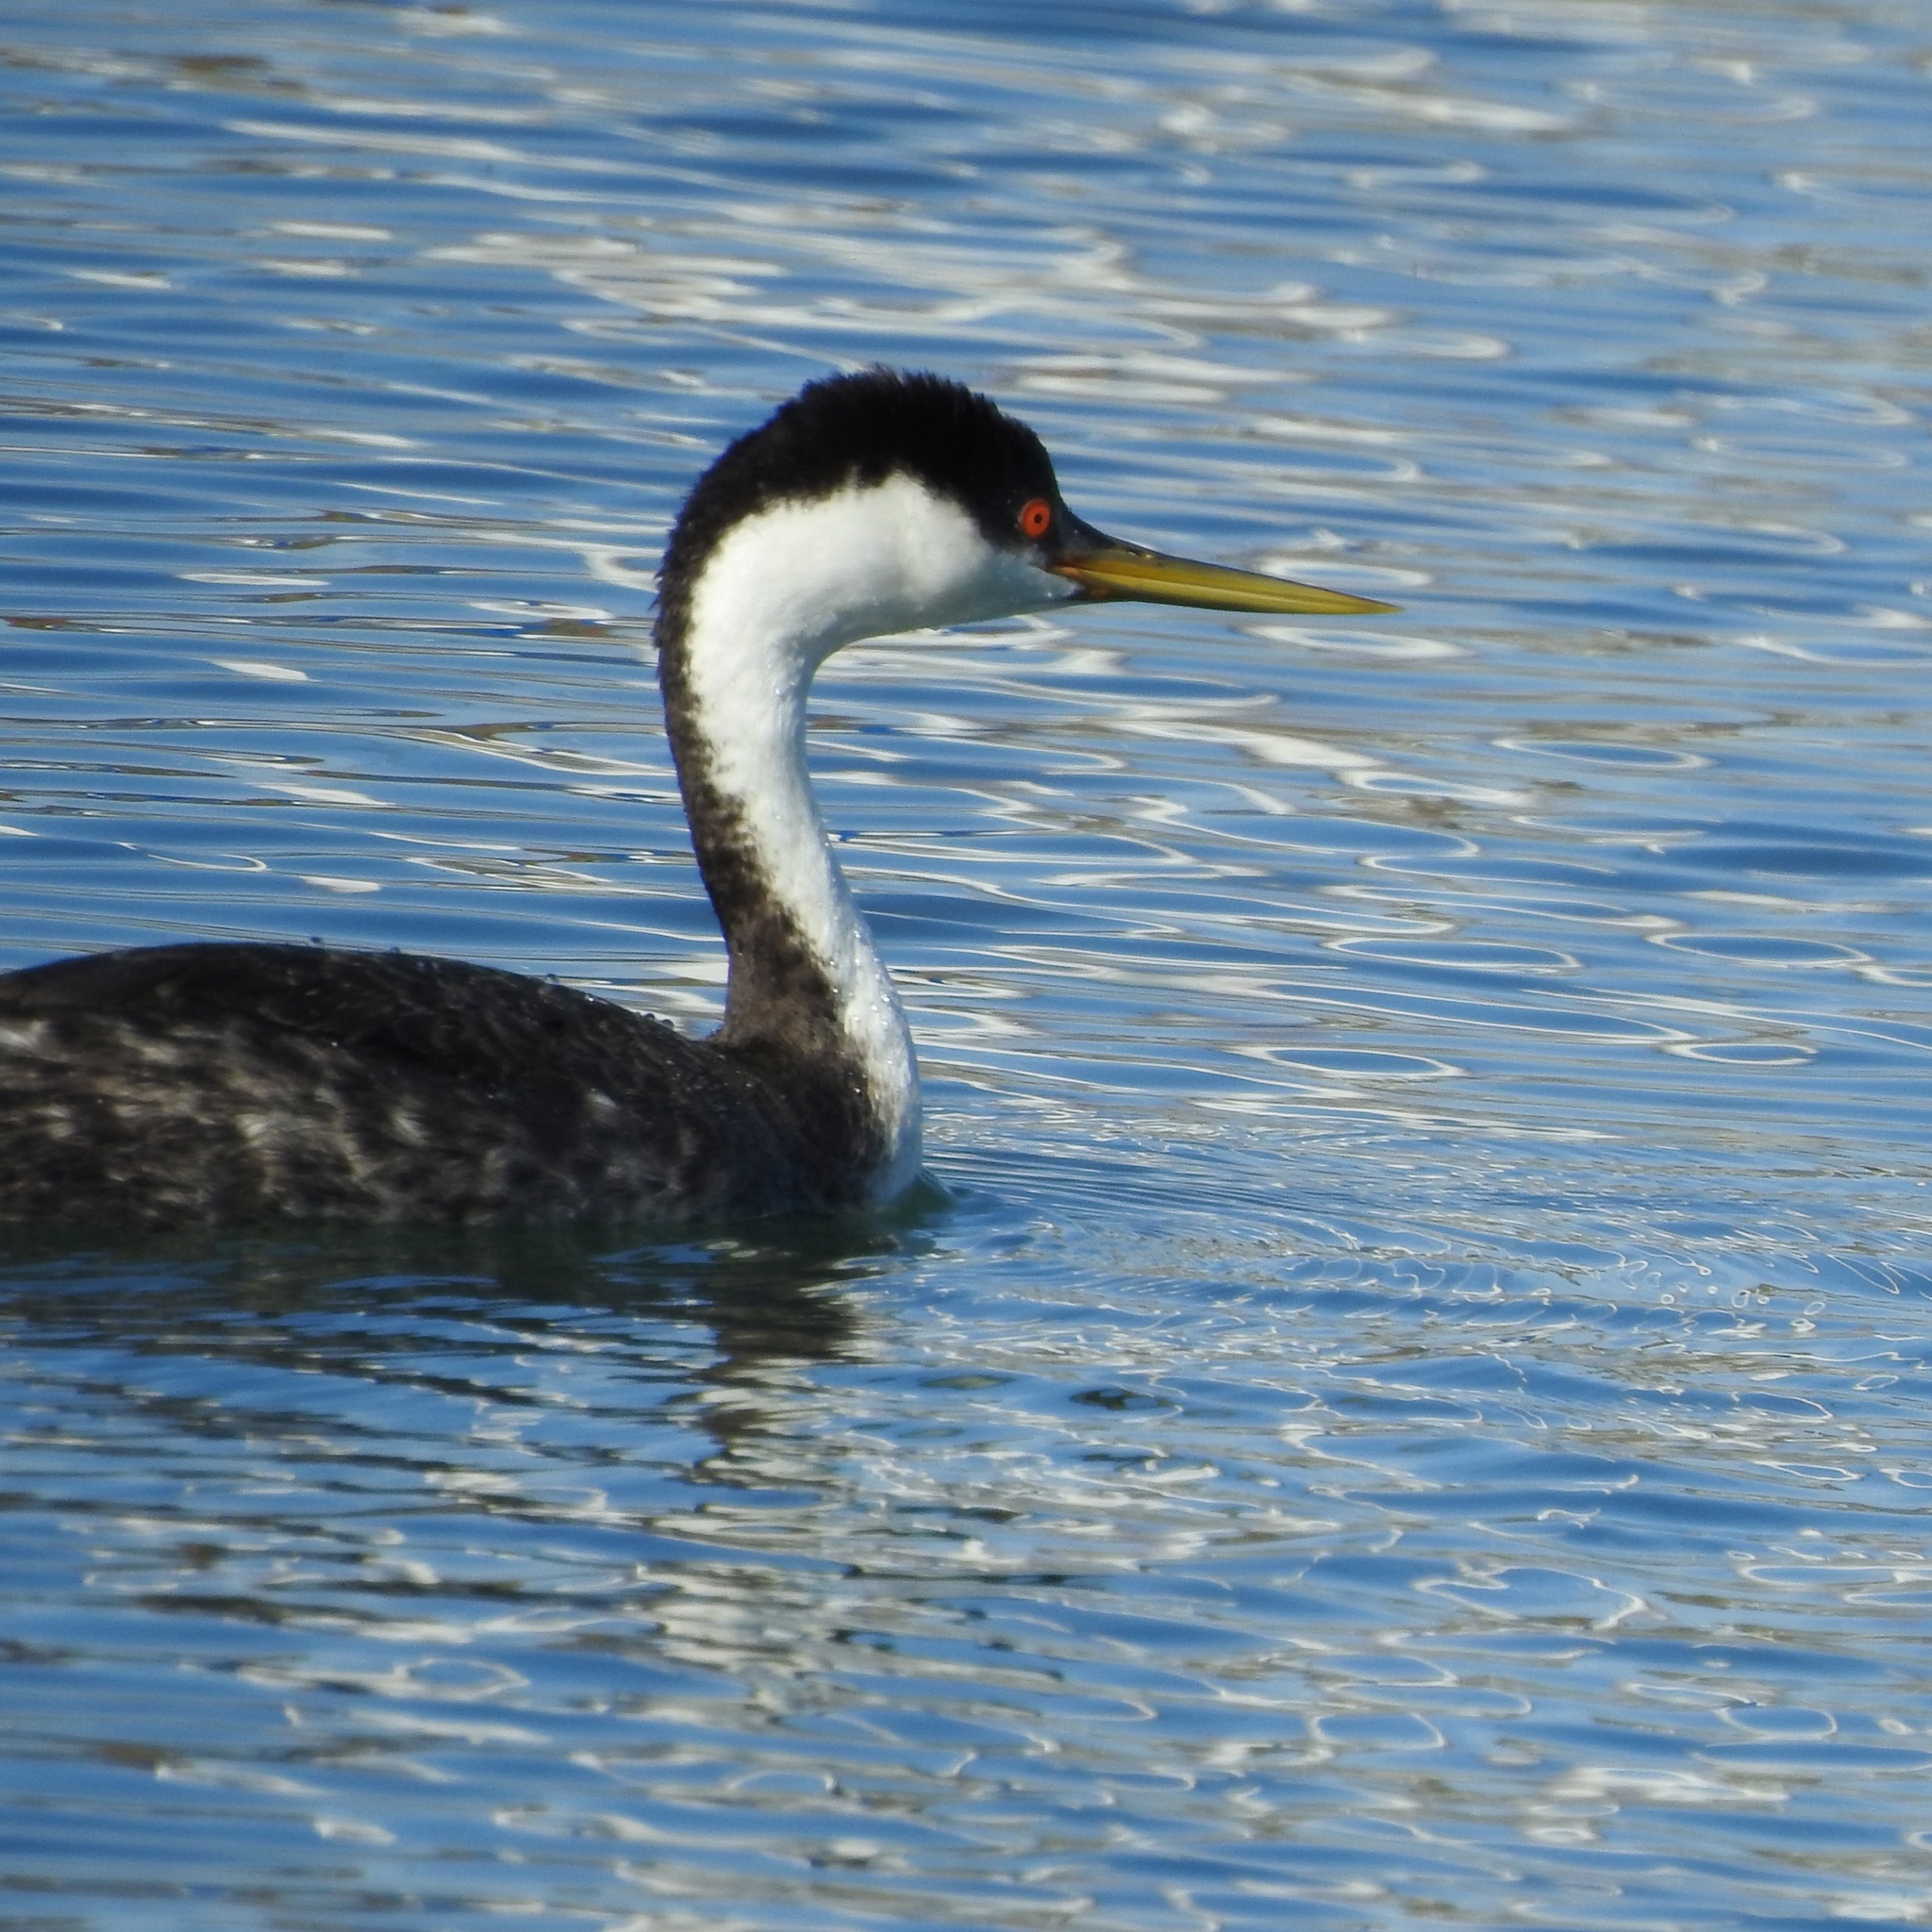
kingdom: Animalia
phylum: Chordata
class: Aves
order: Podicipediformes
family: Podicipedidae
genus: Aechmophorus
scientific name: Aechmophorus occidentalis
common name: Western grebe
